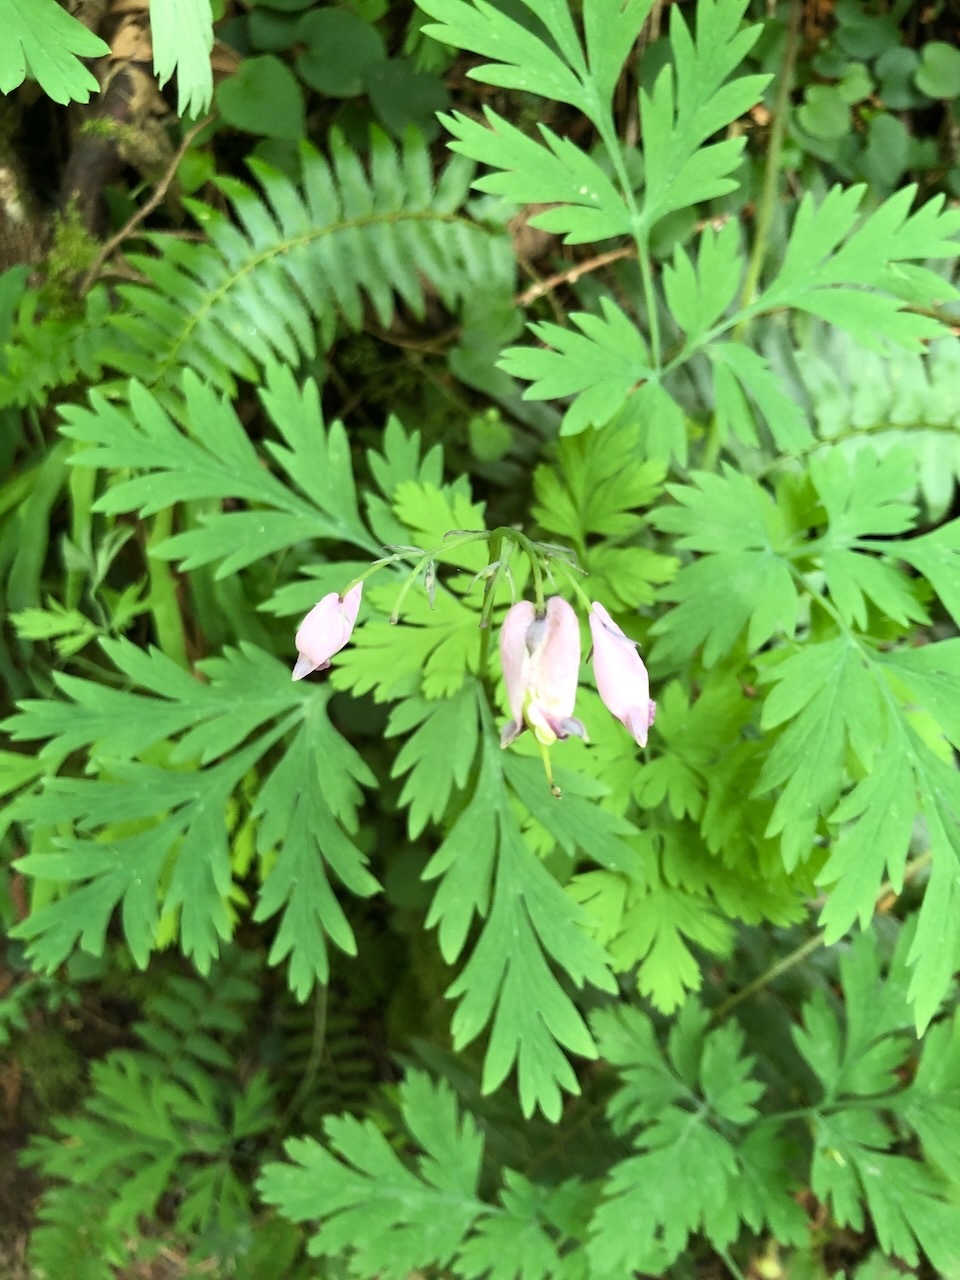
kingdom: Plantae
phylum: Tracheophyta
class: Magnoliopsida
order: Ranunculales
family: Papaveraceae
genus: Dicentra
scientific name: Dicentra formosa
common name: Bleeding-heart
